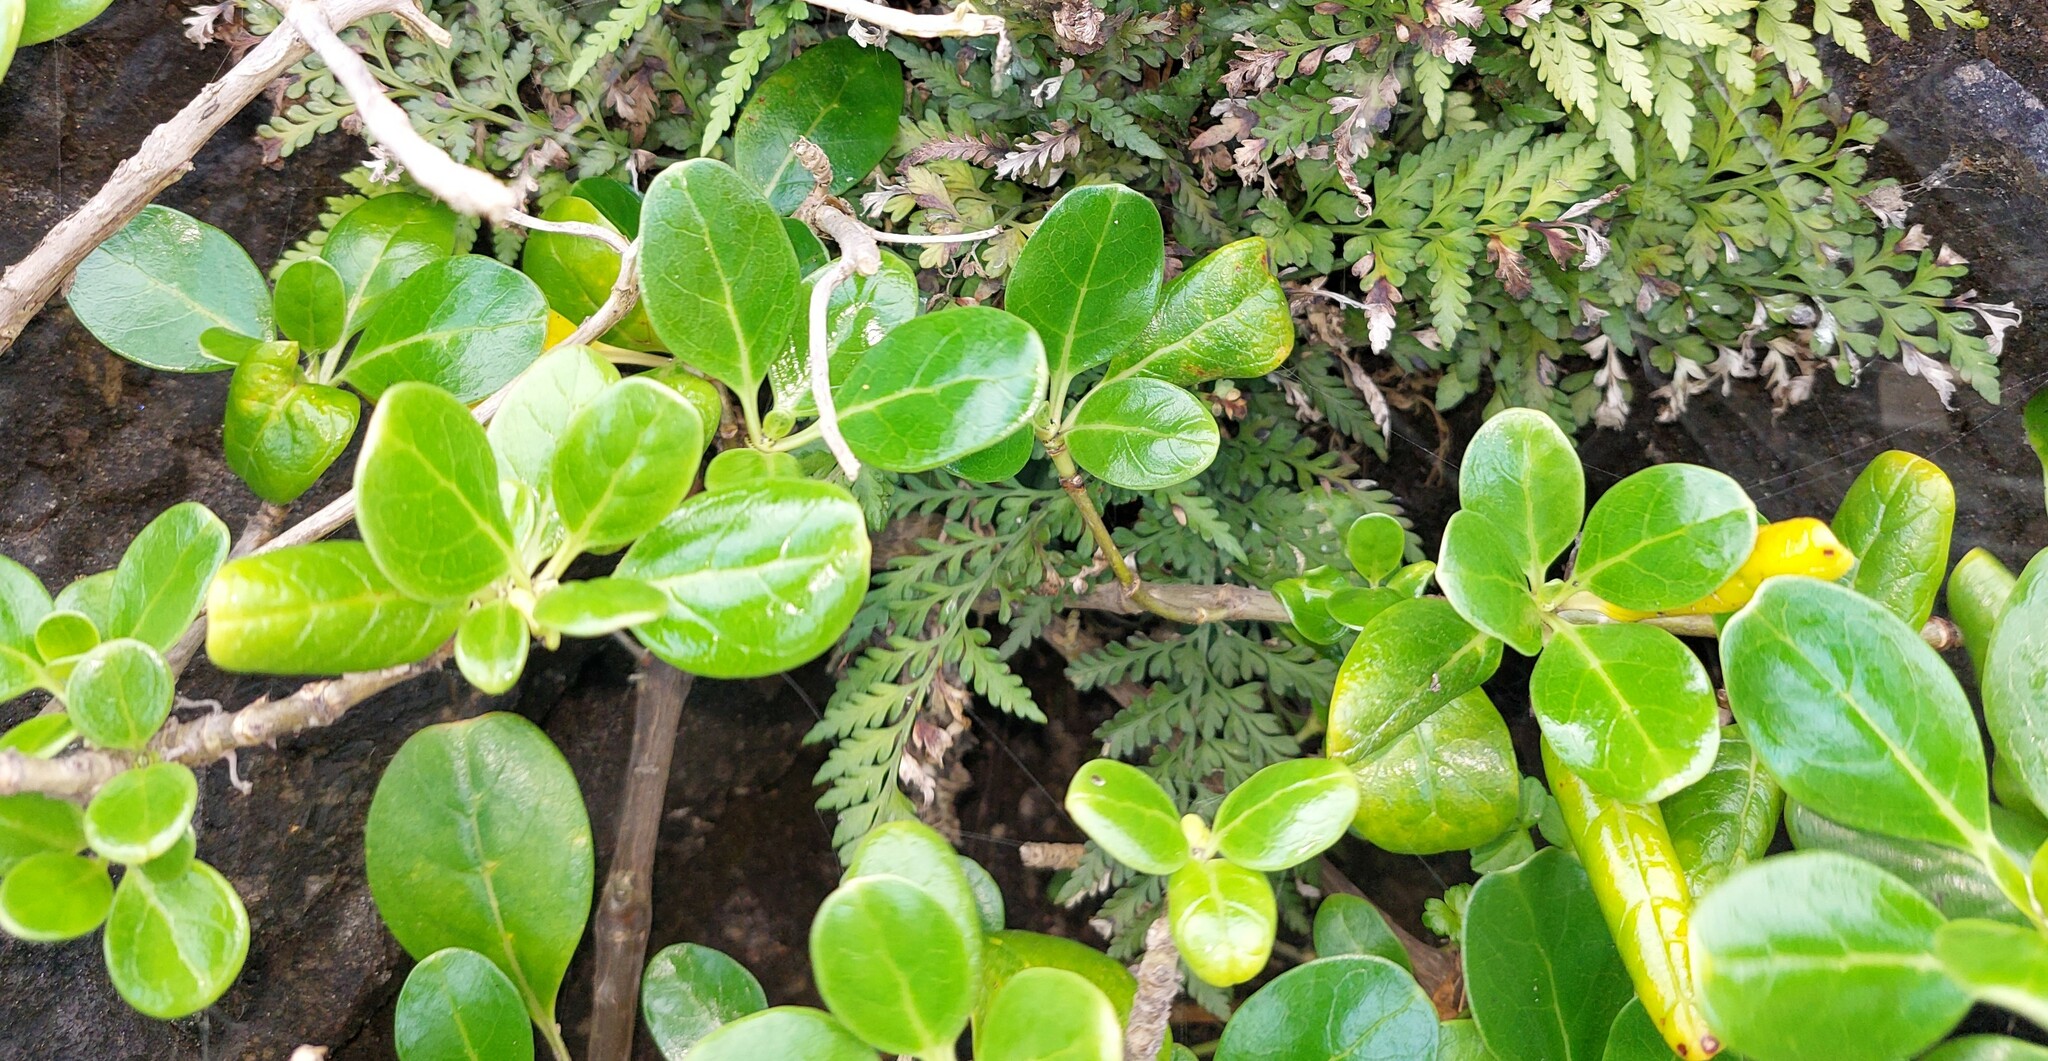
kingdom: Plantae
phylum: Tracheophyta
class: Magnoliopsida
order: Gentianales
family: Rubiaceae
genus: Coprosma
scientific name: Coprosma repens
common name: Tree bedstraw
